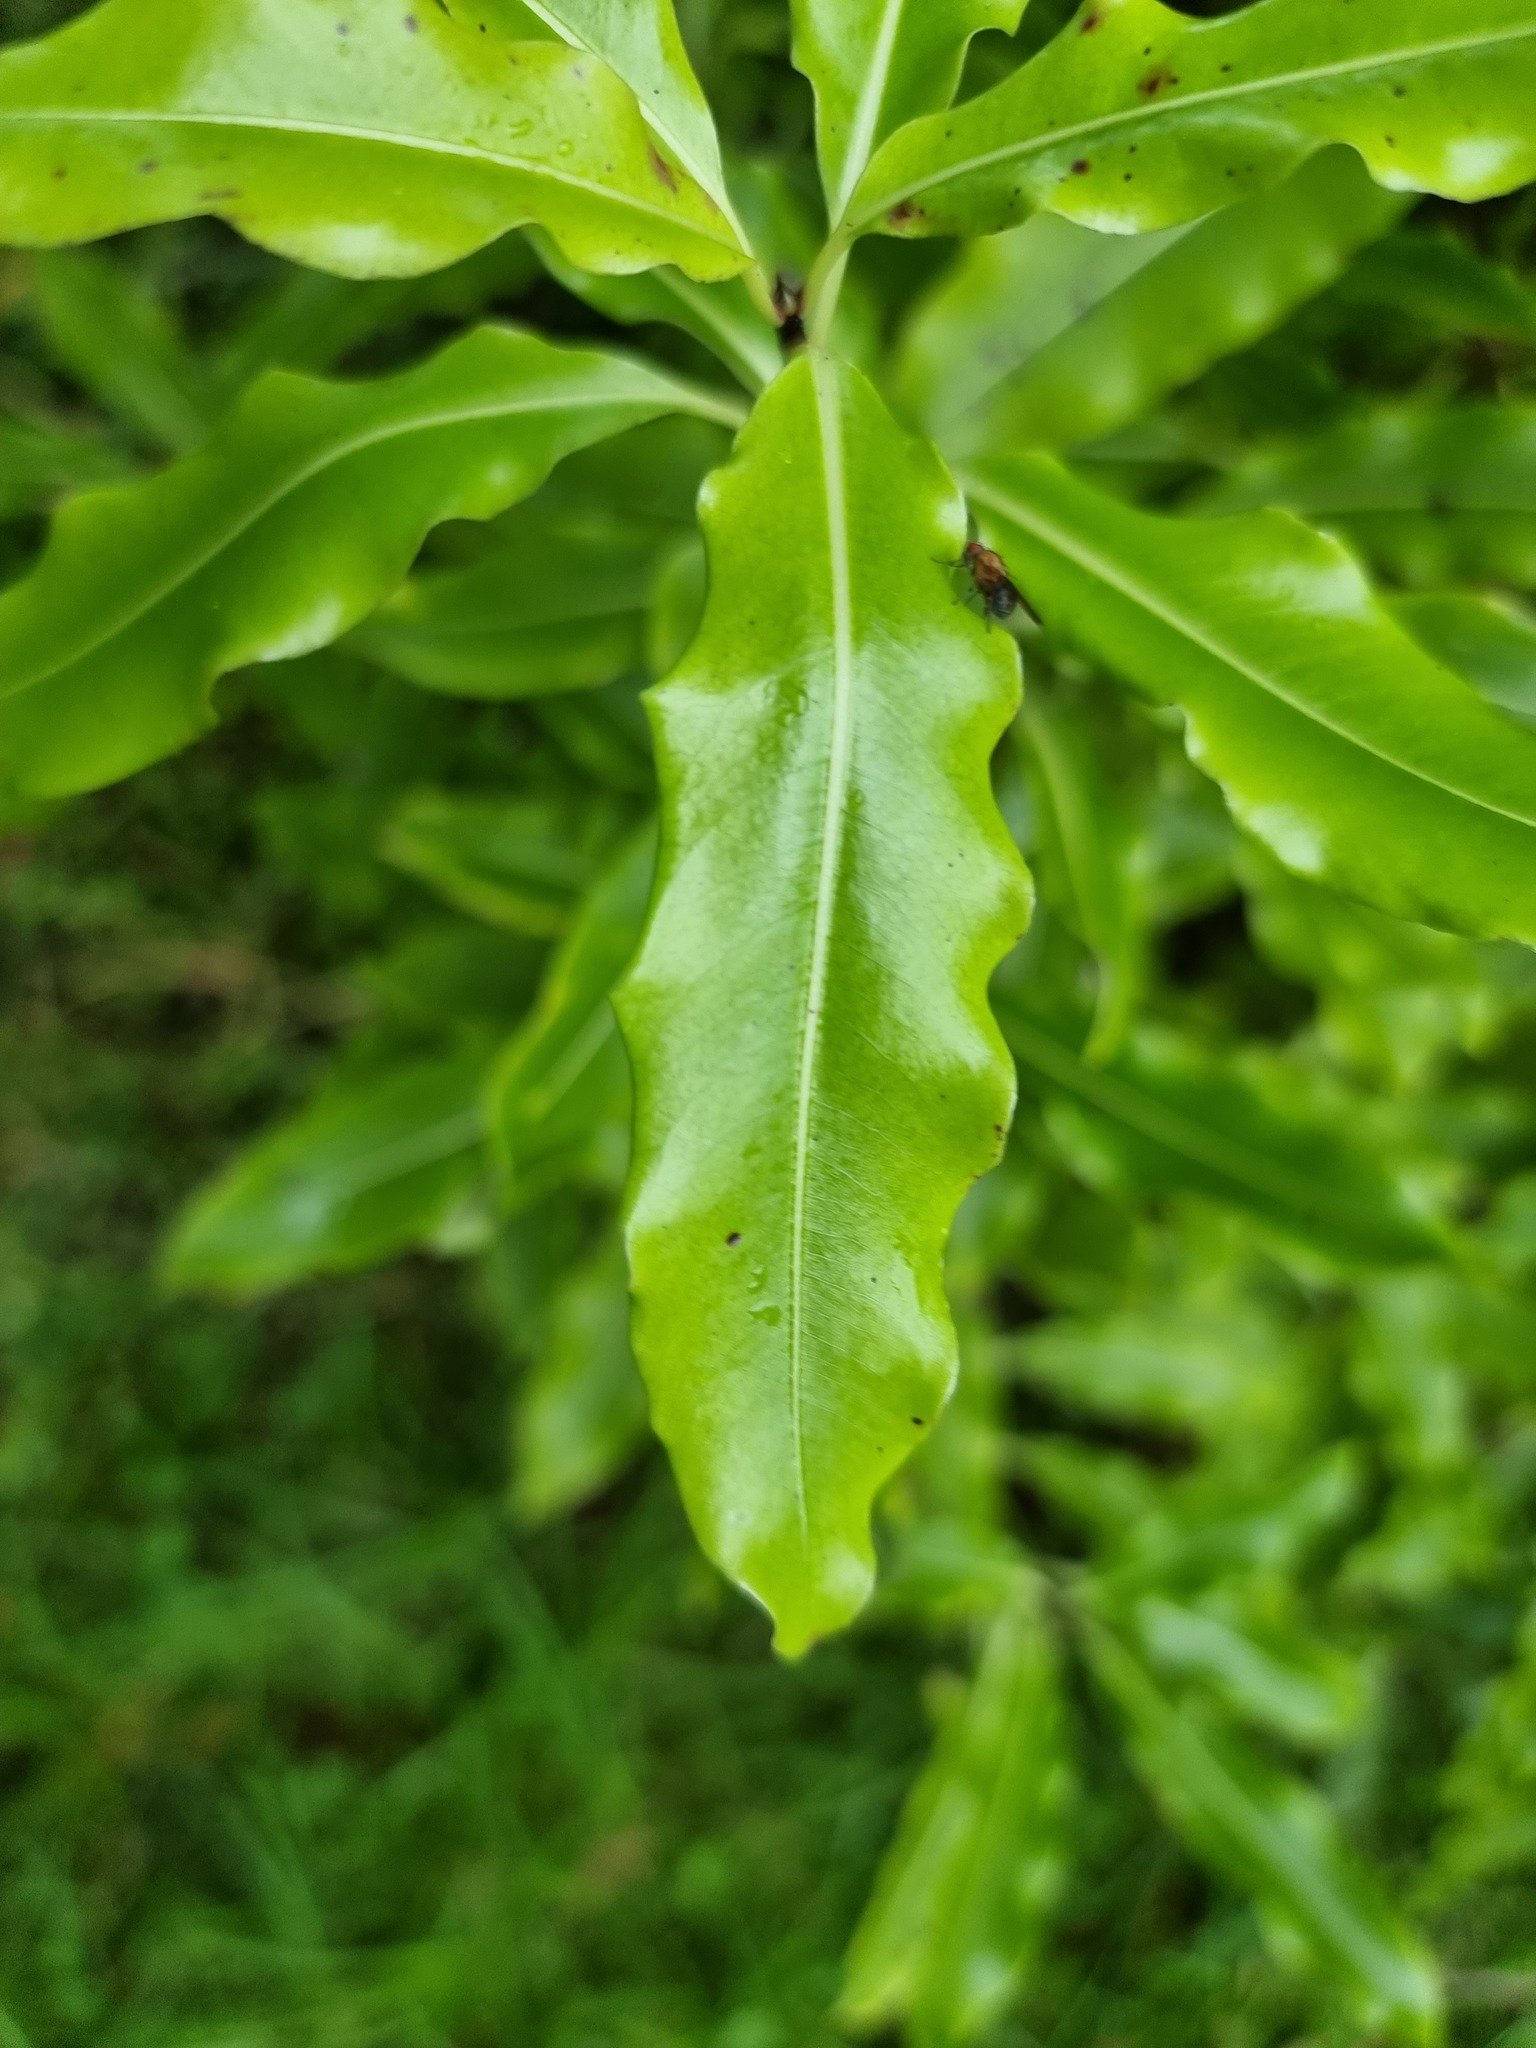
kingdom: Plantae
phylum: Tracheophyta
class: Magnoliopsida
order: Apiales
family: Pittosporaceae
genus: Pittosporum
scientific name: Pittosporum eugenioides
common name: Lemonwood
